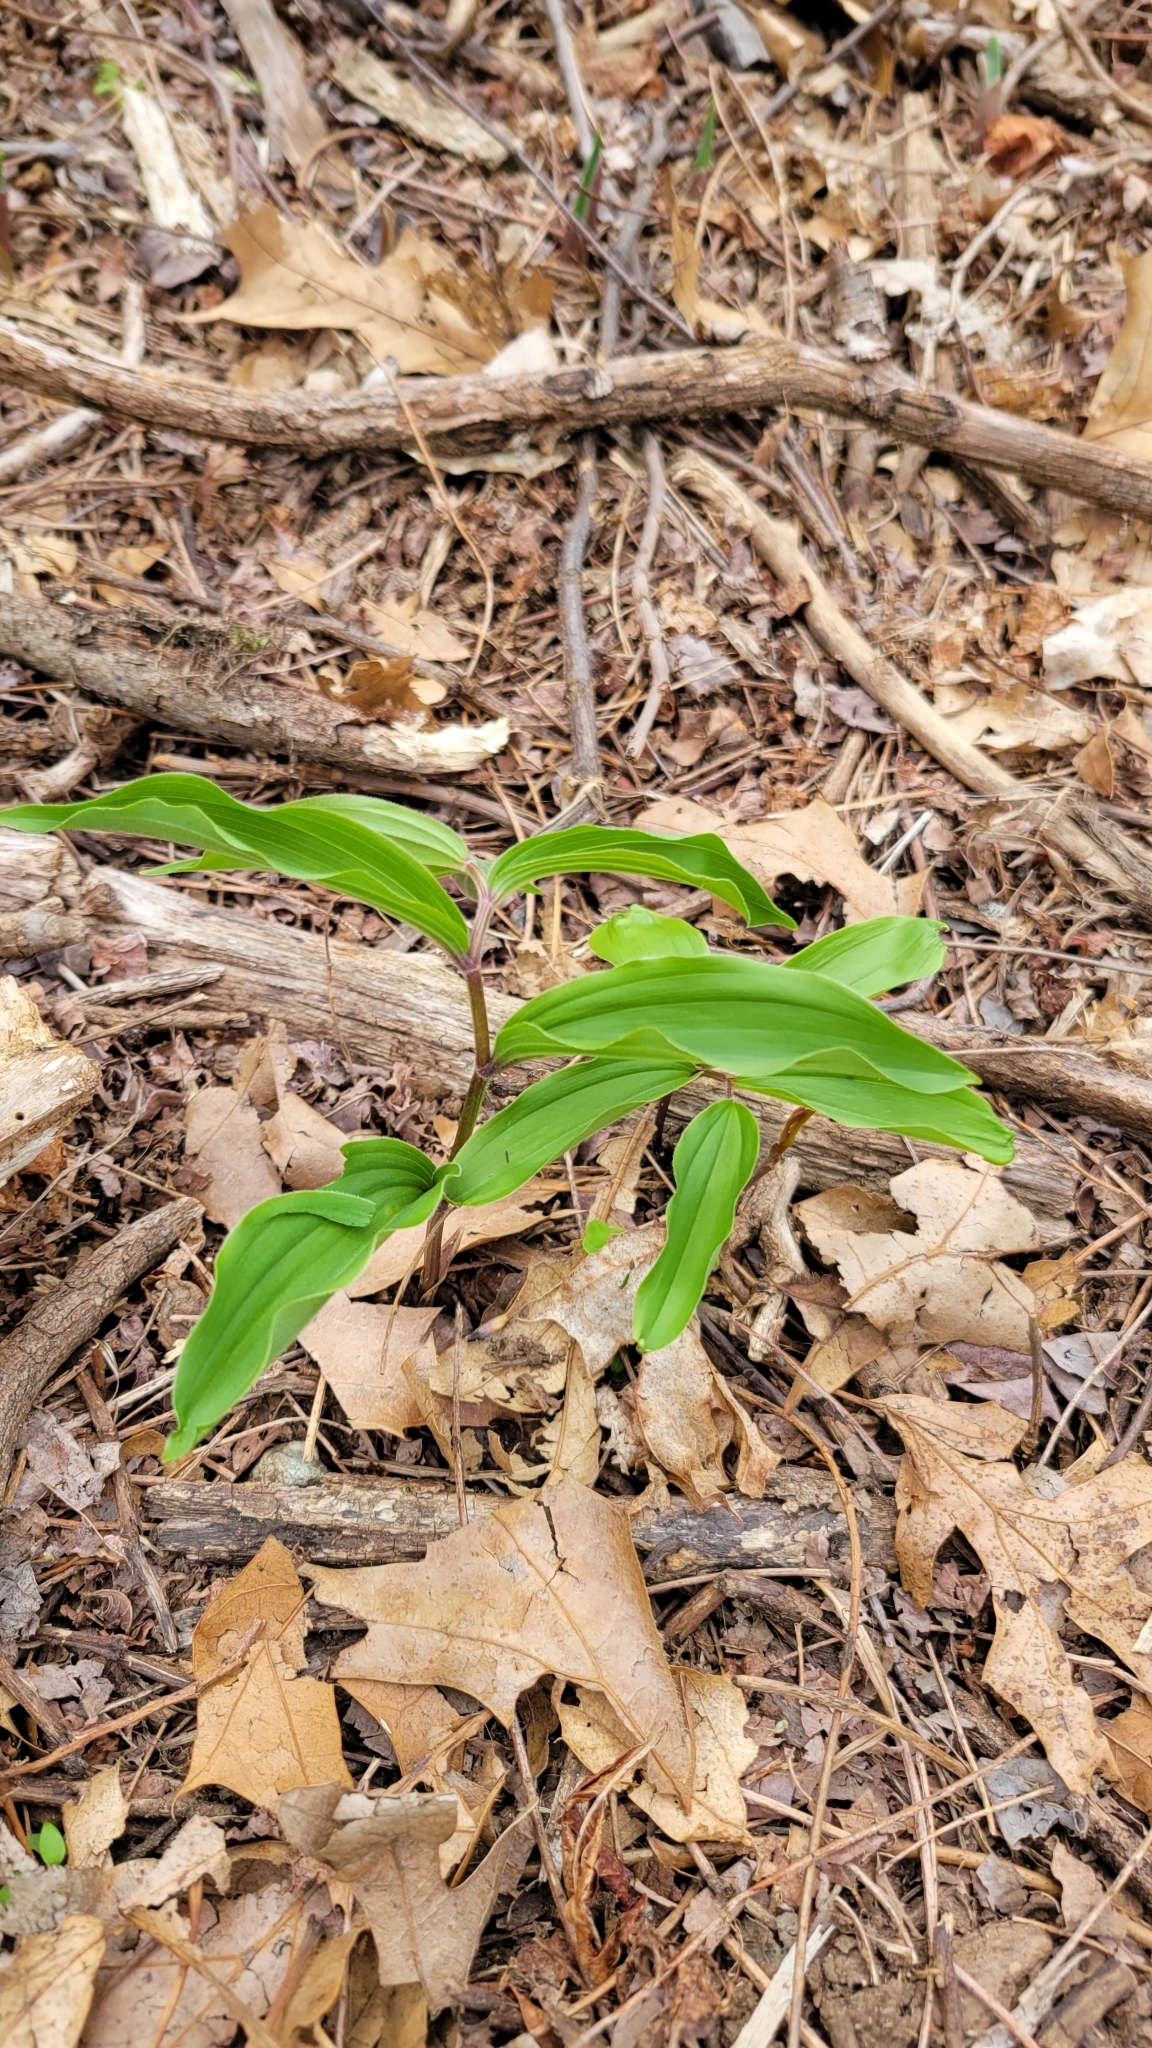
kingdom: Plantae
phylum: Tracheophyta
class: Liliopsida
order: Asparagales
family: Asparagaceae
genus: Maianthemum
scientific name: Maianthemum racemosum
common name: False spikenard
